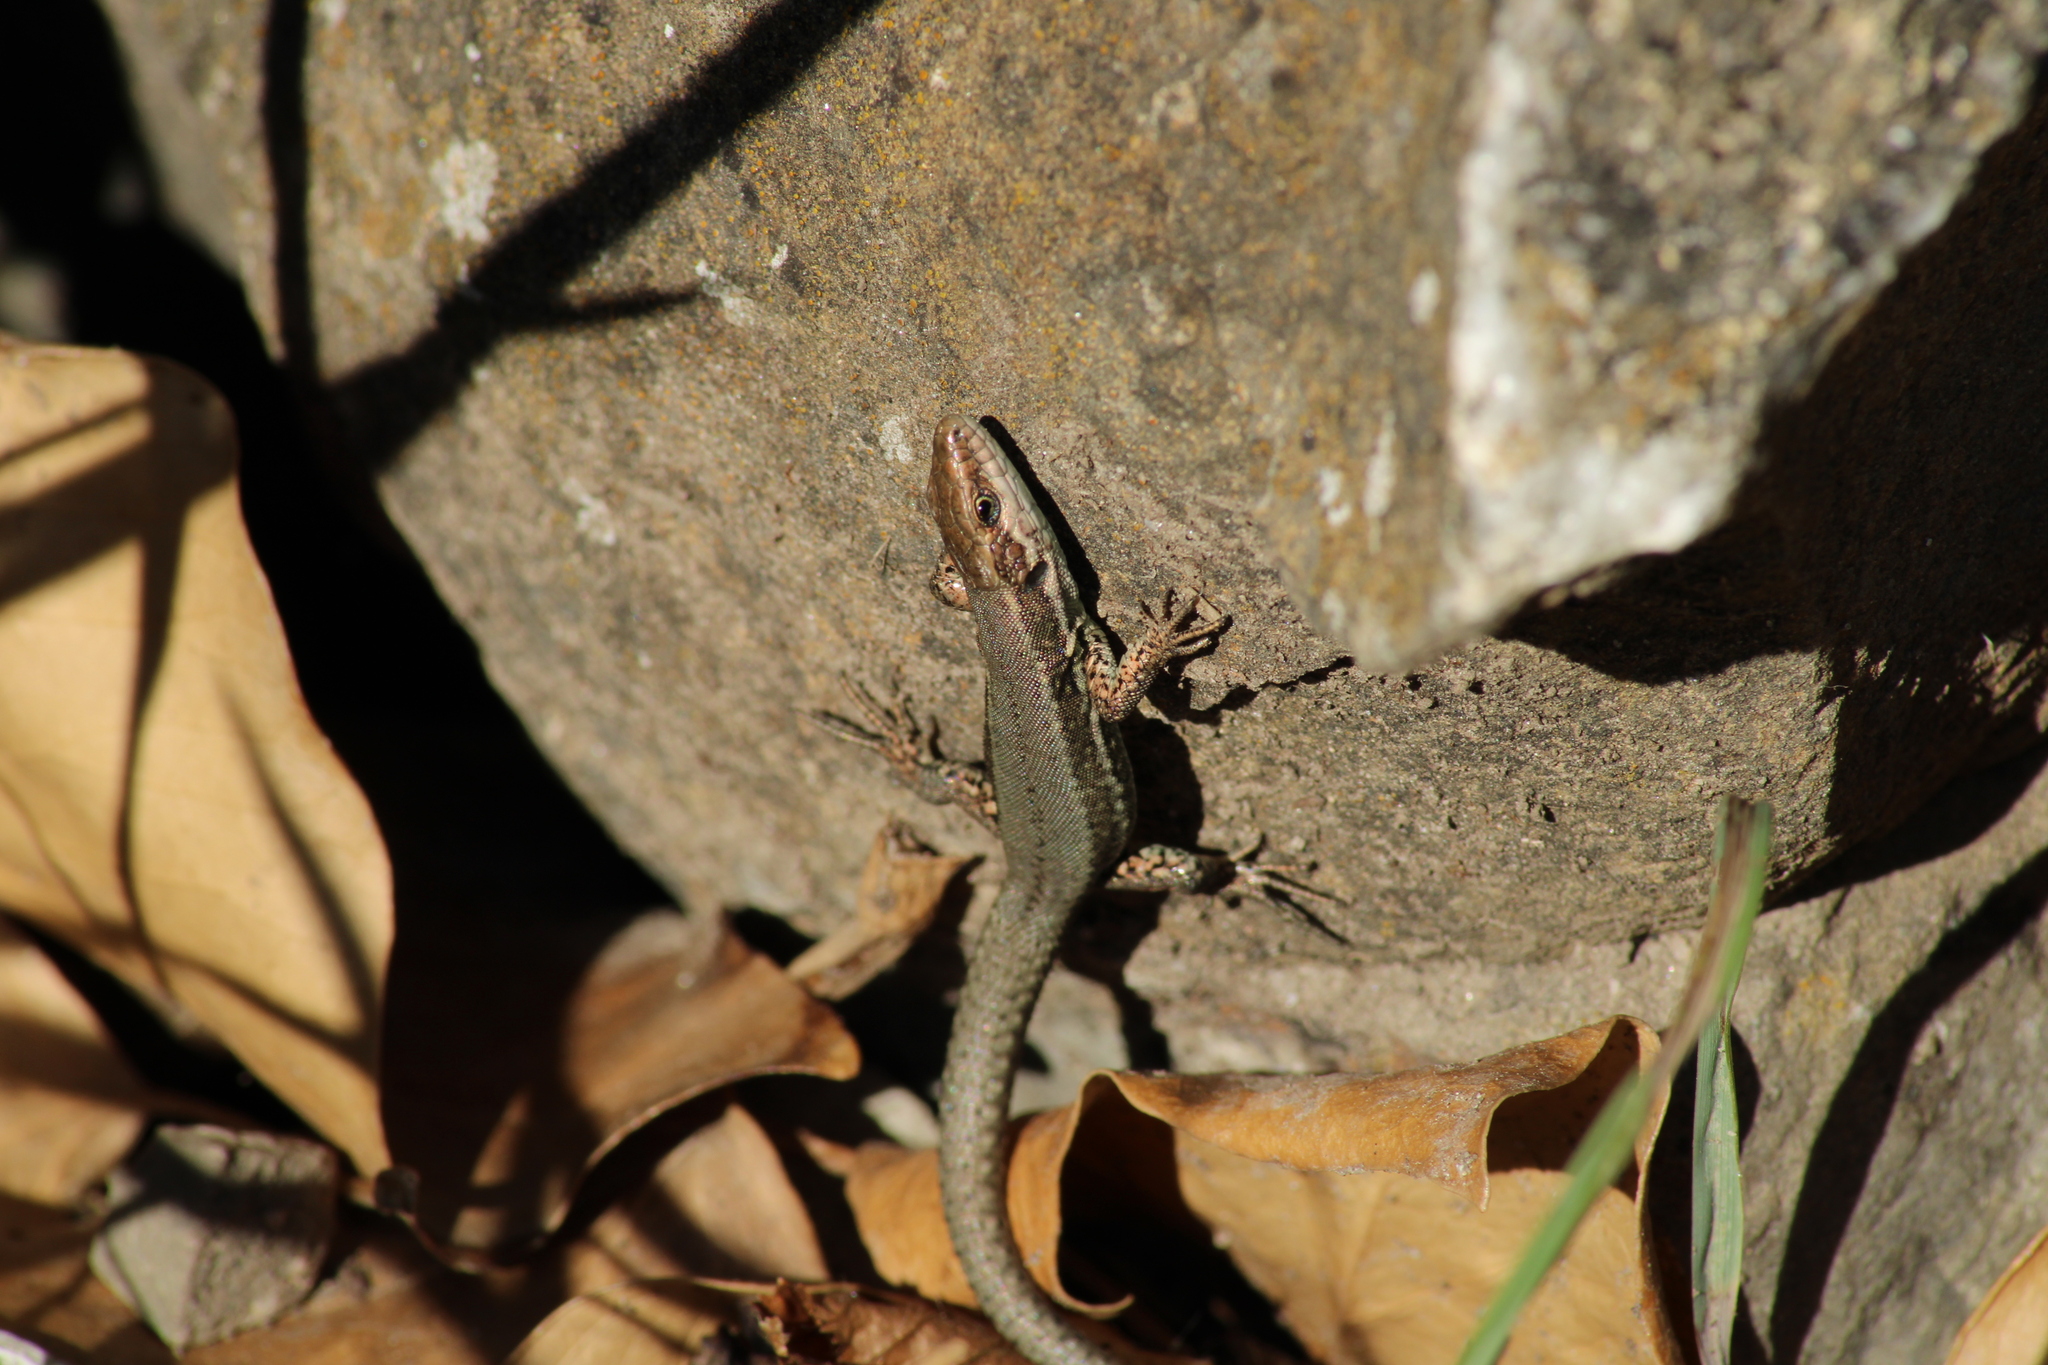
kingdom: Animalia
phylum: Chordata
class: Squamata
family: Lacertidae
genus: Podarcis
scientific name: Podarcis muralis
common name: Common wall lizard
